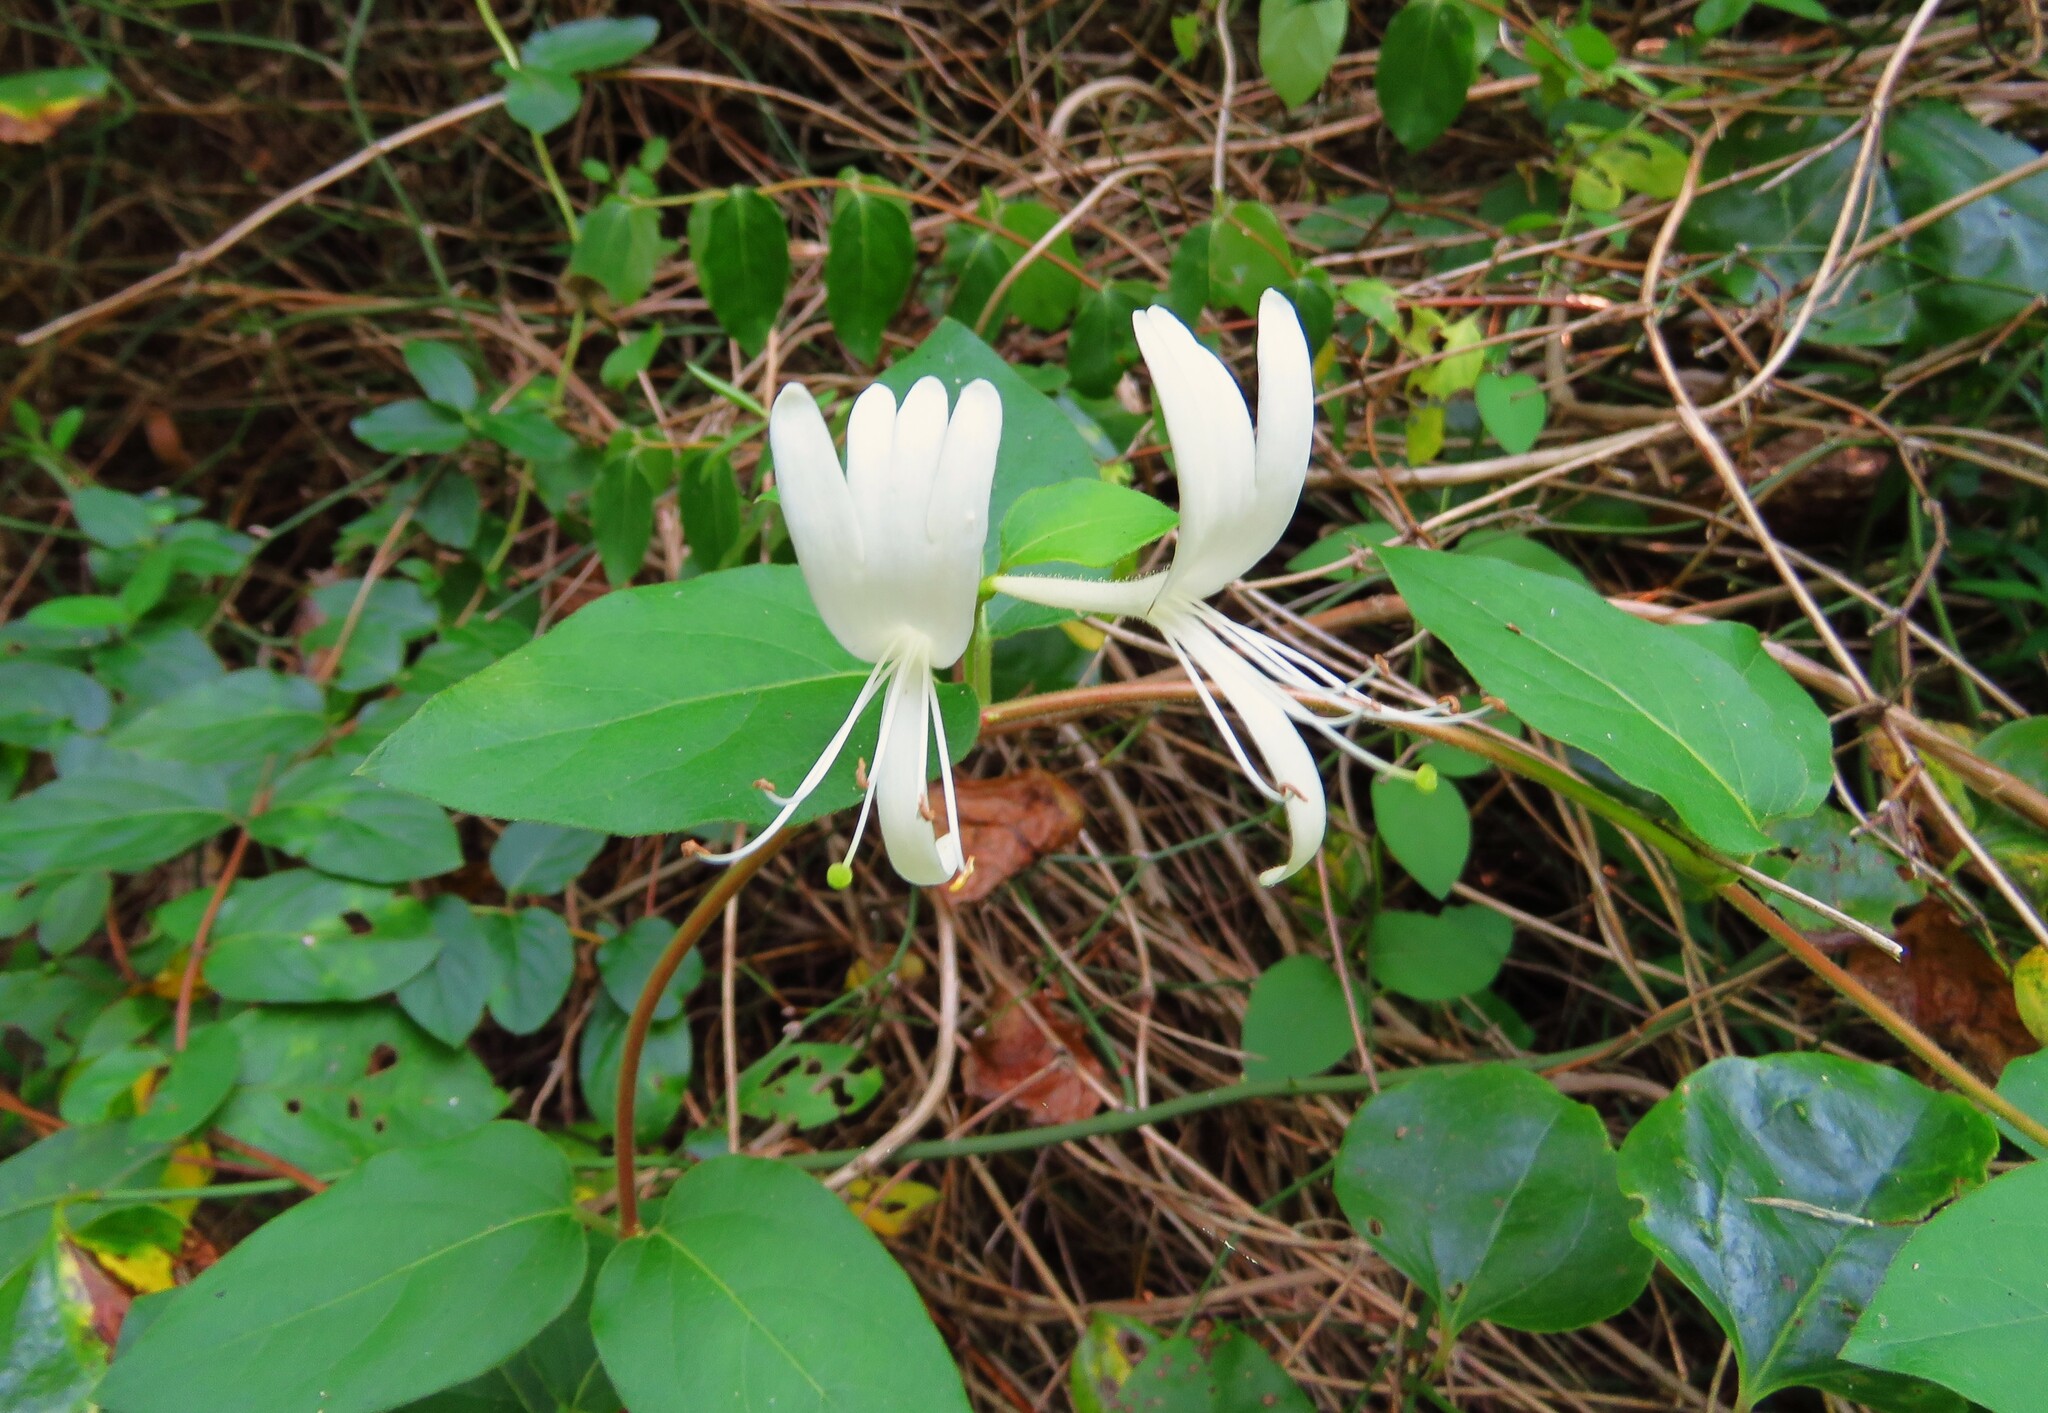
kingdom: Plantae
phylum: Tracheophyta
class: Magnoliopsida
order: Dipsacales
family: Caprifoliaceae
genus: Lonicera
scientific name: Lonicera japonica
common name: Japanese honeysuckle
